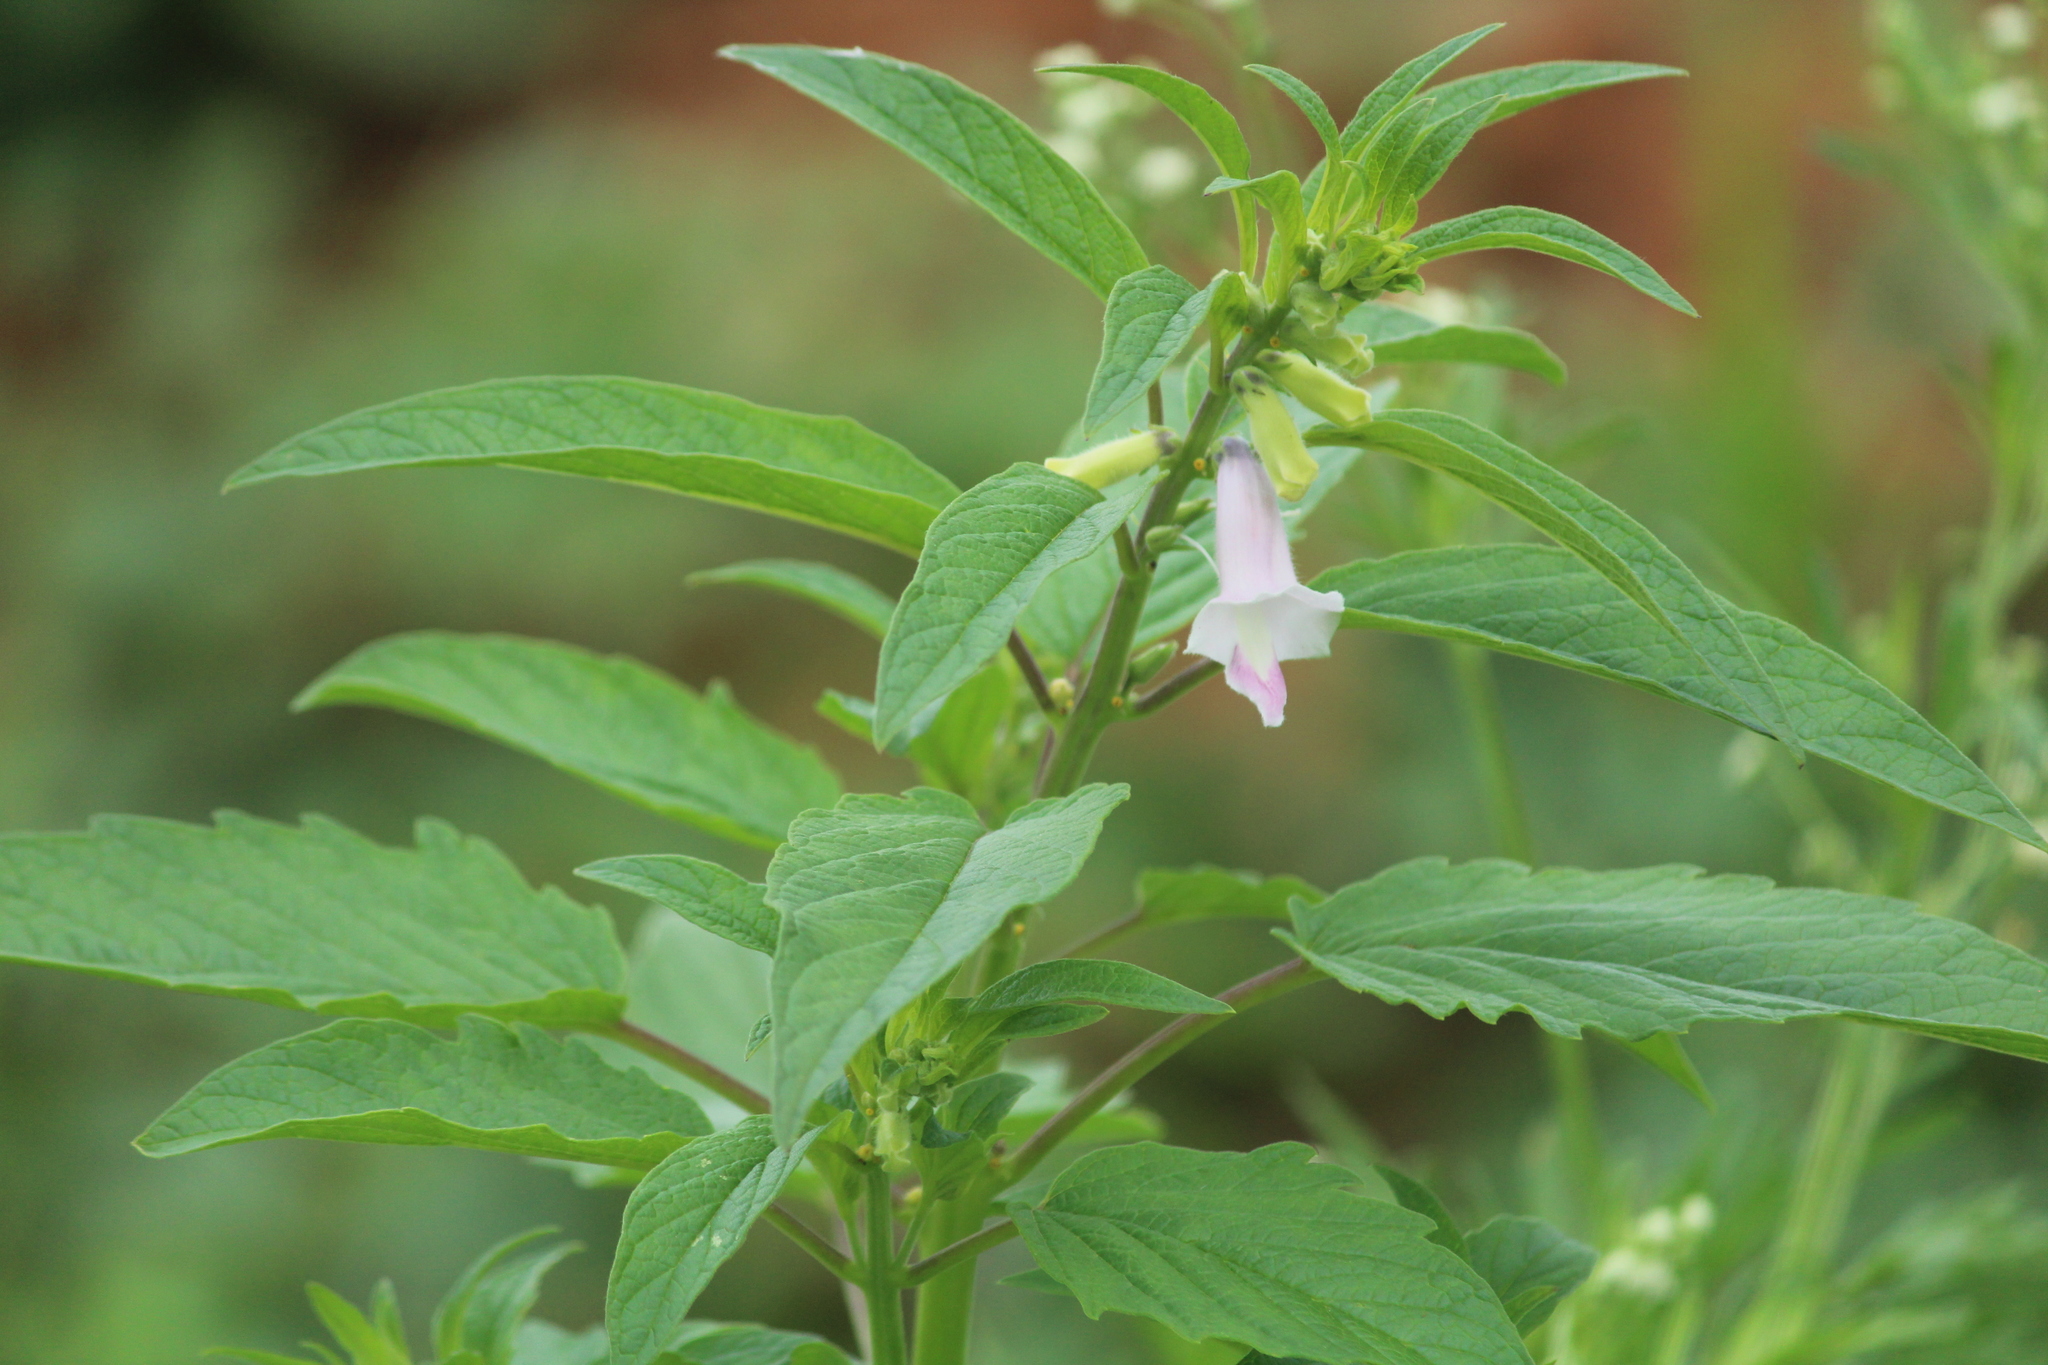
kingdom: Plantae
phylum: Tracheophyta
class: Magnoliopsida
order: Lamiales
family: Pedaliaceae
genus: Sesamum
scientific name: Sesamum indicum
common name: Sesame
